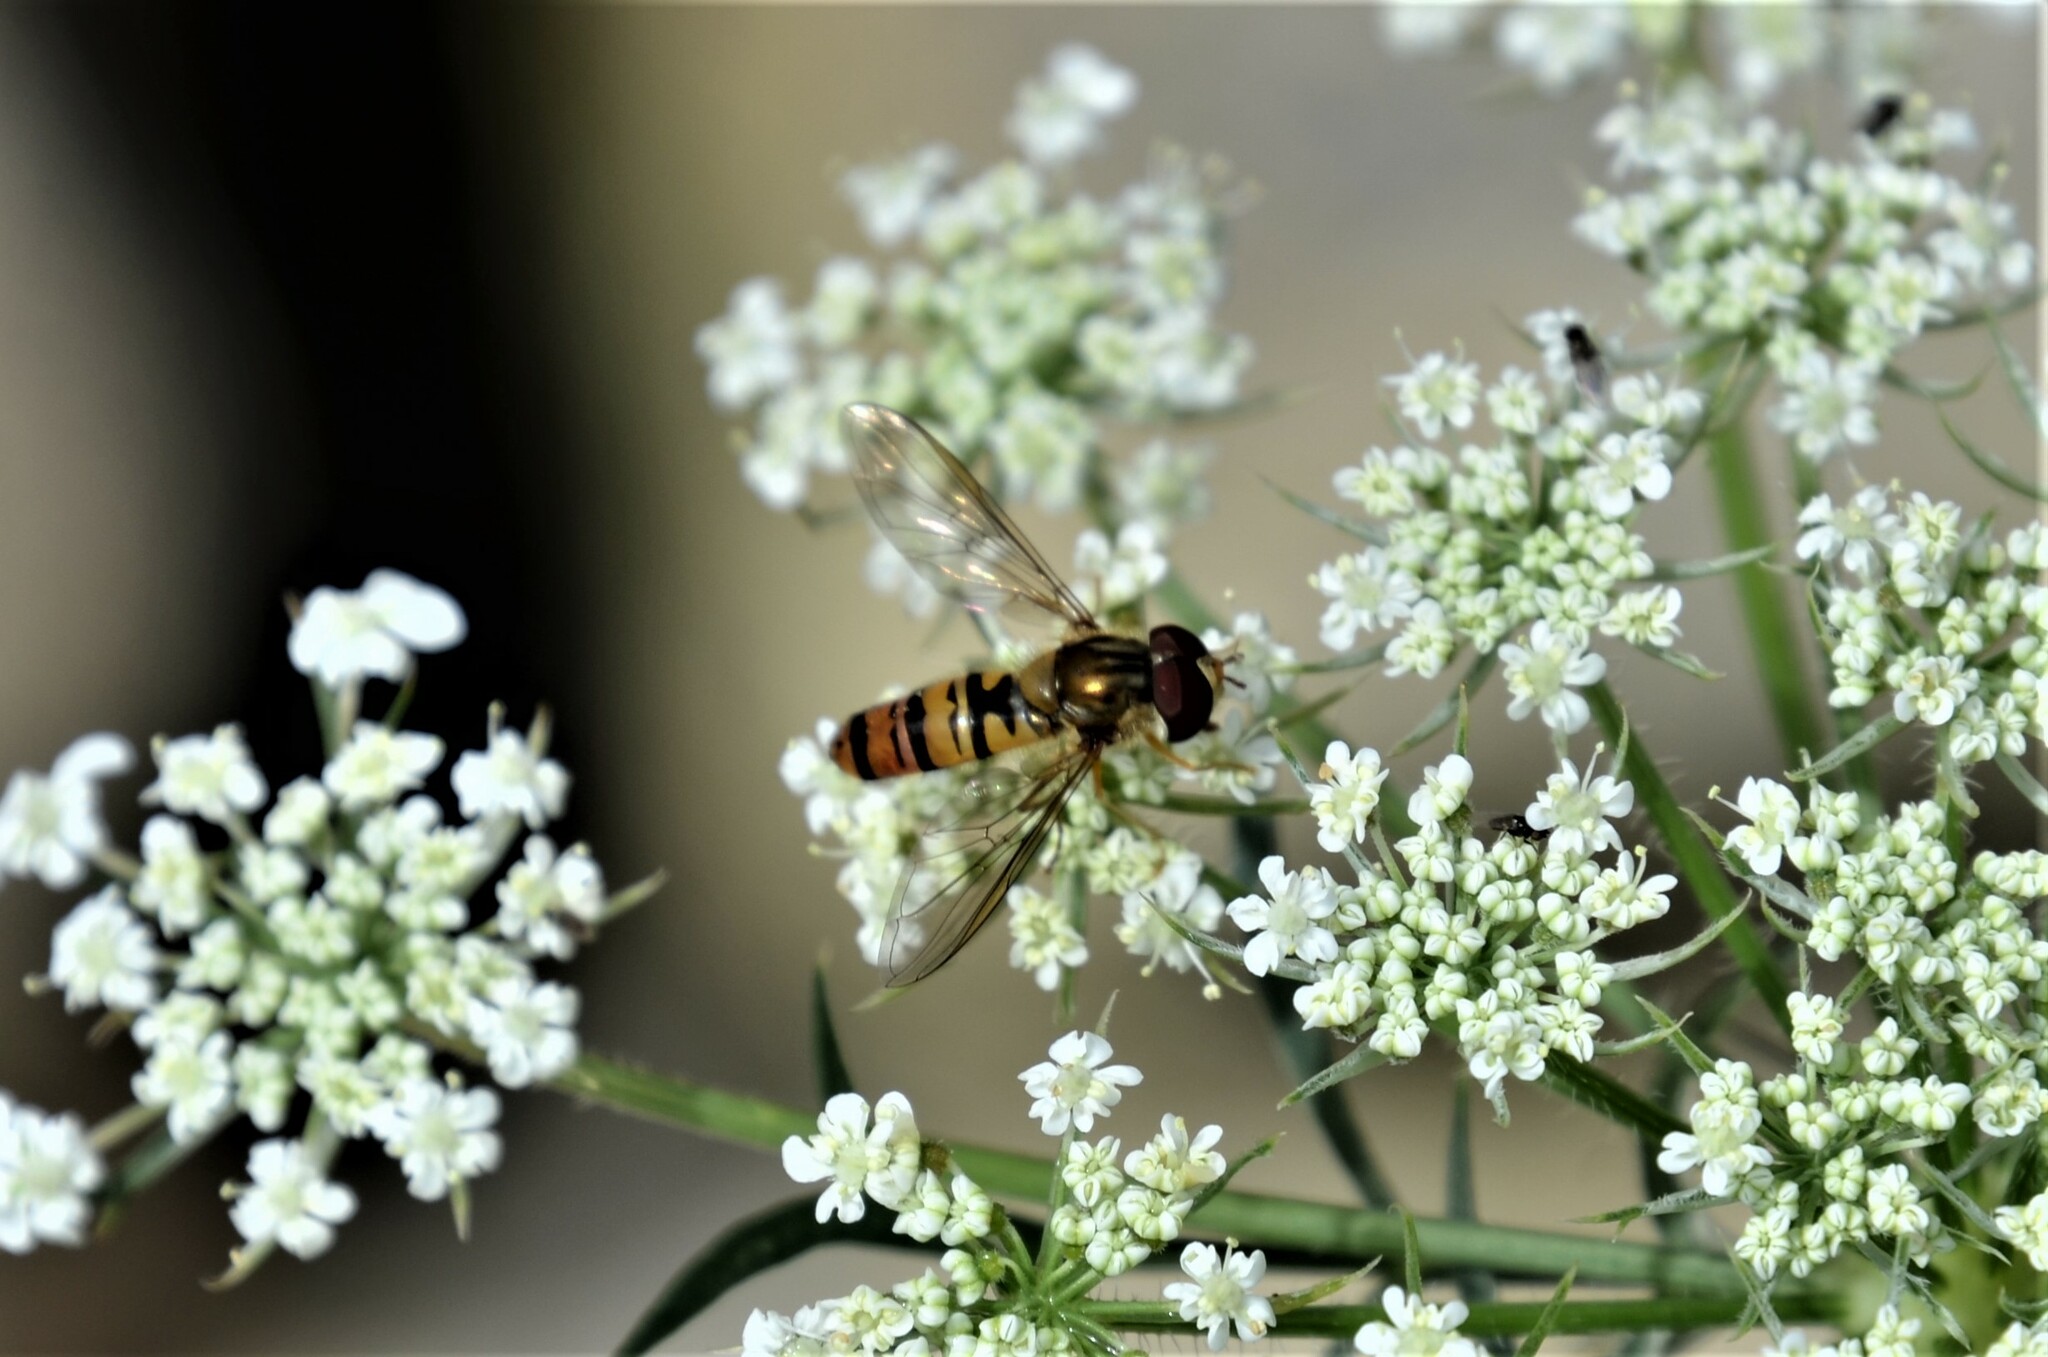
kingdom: Animalia
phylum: Arthropoda
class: Insecta
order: Diptera
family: Syrphidae
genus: Episyrphus
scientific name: Episyrphus balteatus
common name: Marmalade hoverfly
